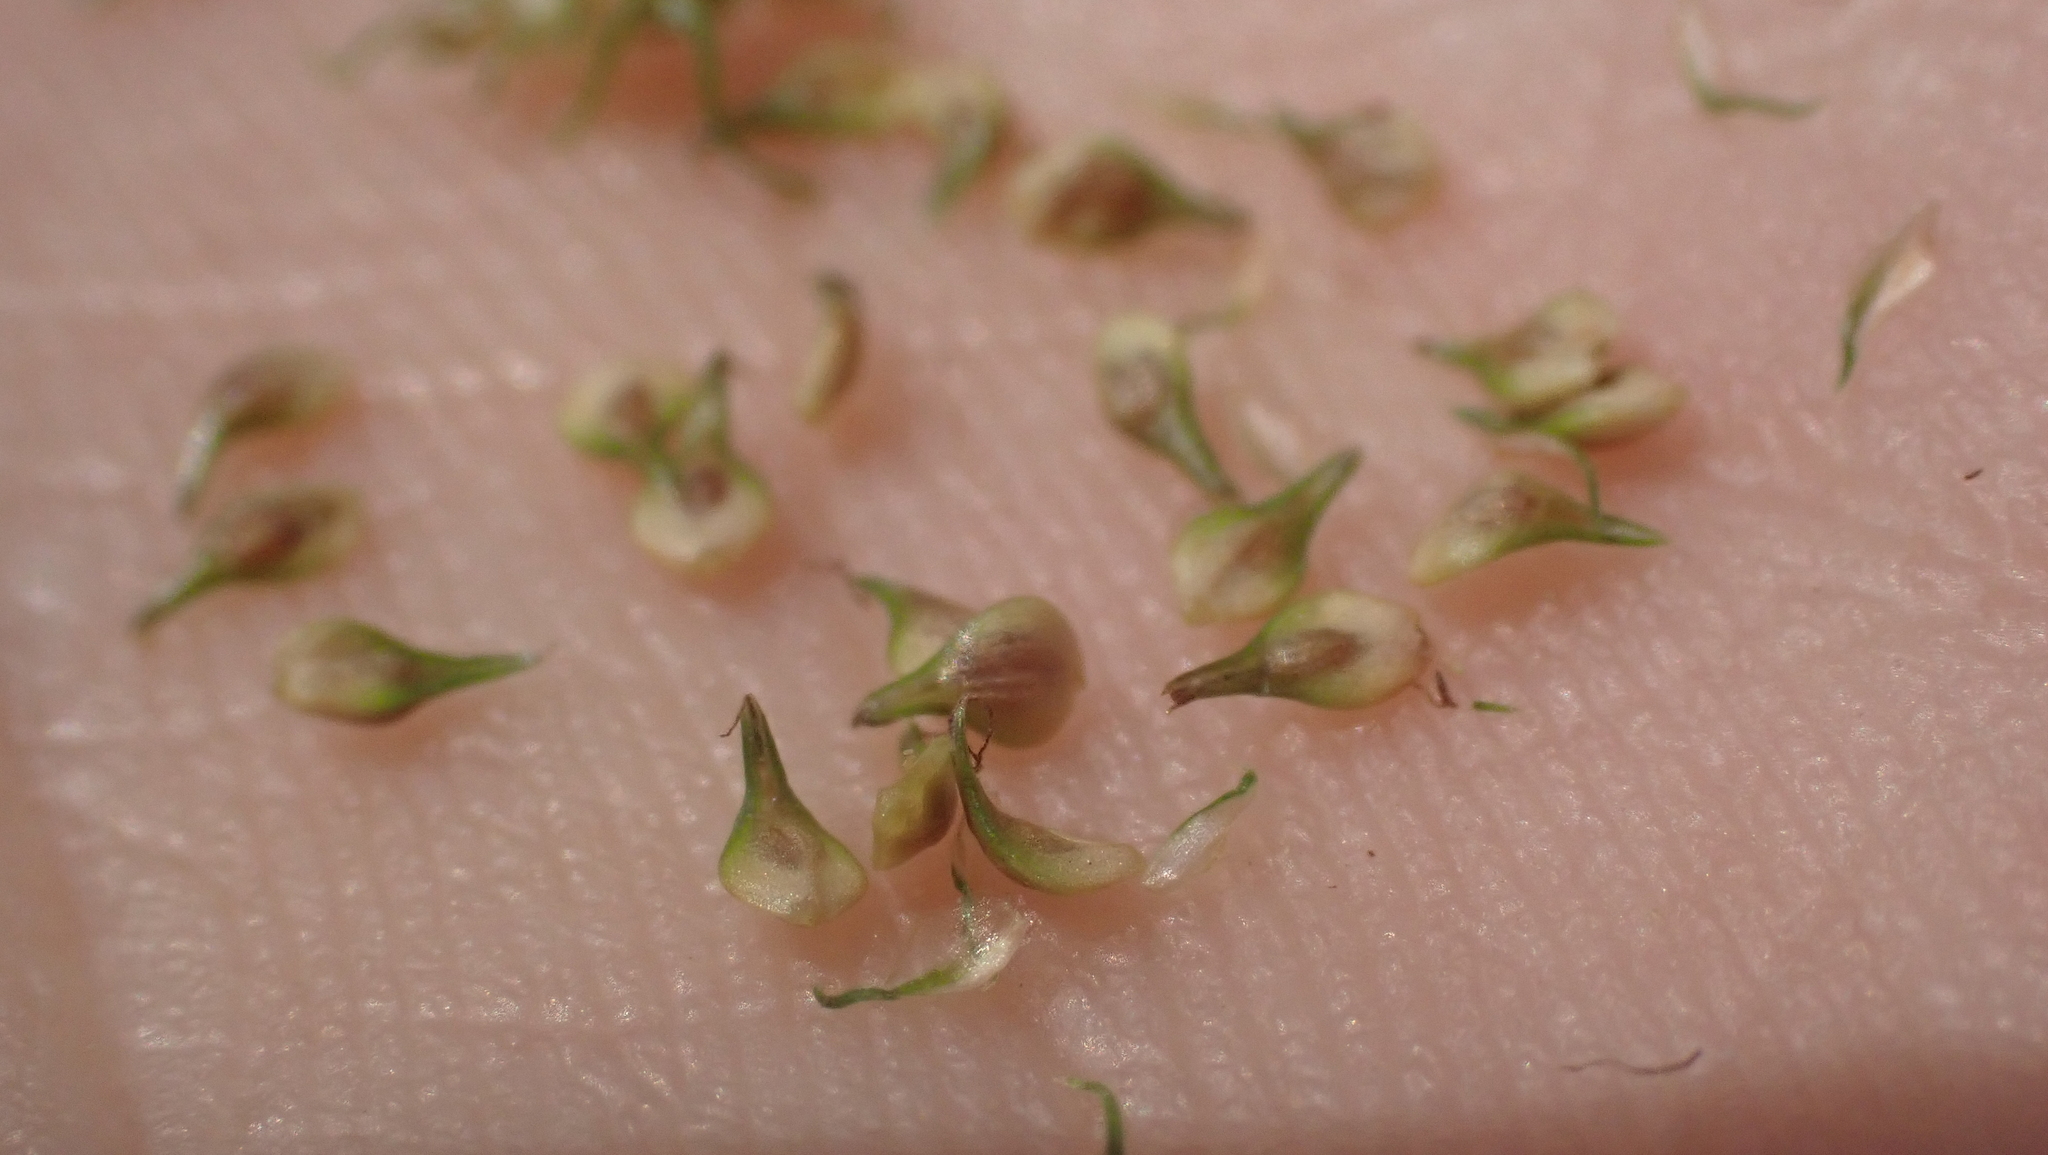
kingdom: Plantae
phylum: Tracheophyta
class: Liliopsida
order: Poales
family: Cyperaceae
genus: Carex
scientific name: Carex vulpinoidea
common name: American fox-sedge
